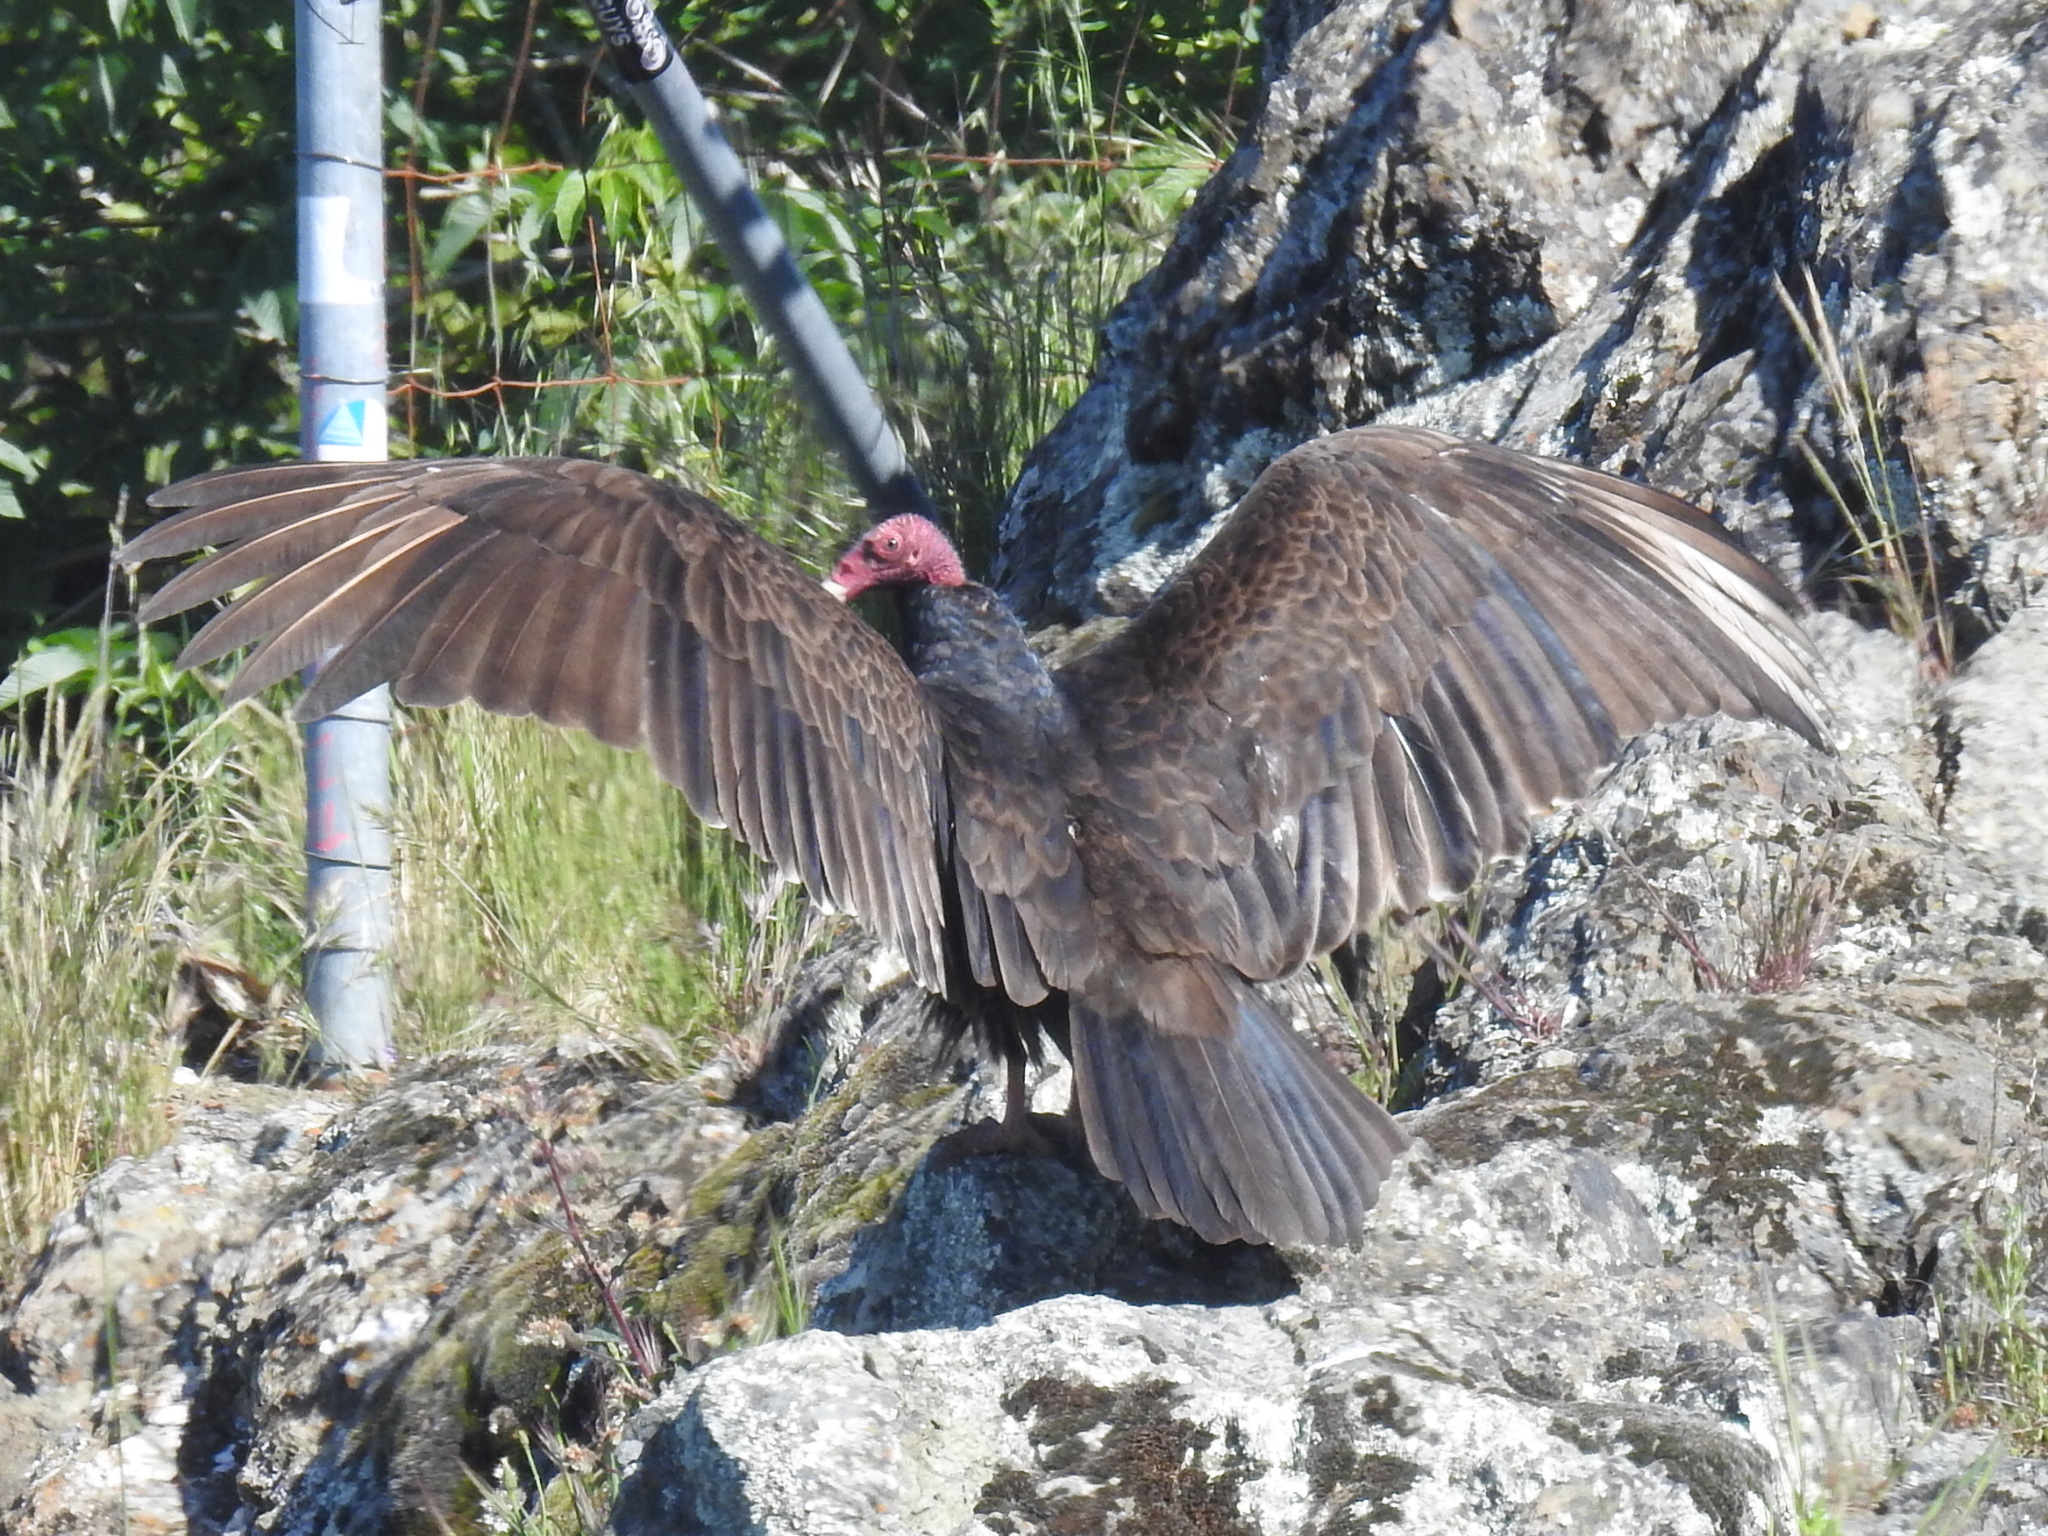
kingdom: Animalia
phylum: Chordata
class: Aves
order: Accipitriformes
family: Cathartidae
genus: Cathartes
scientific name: Cathartes aura
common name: Turkey vulture
